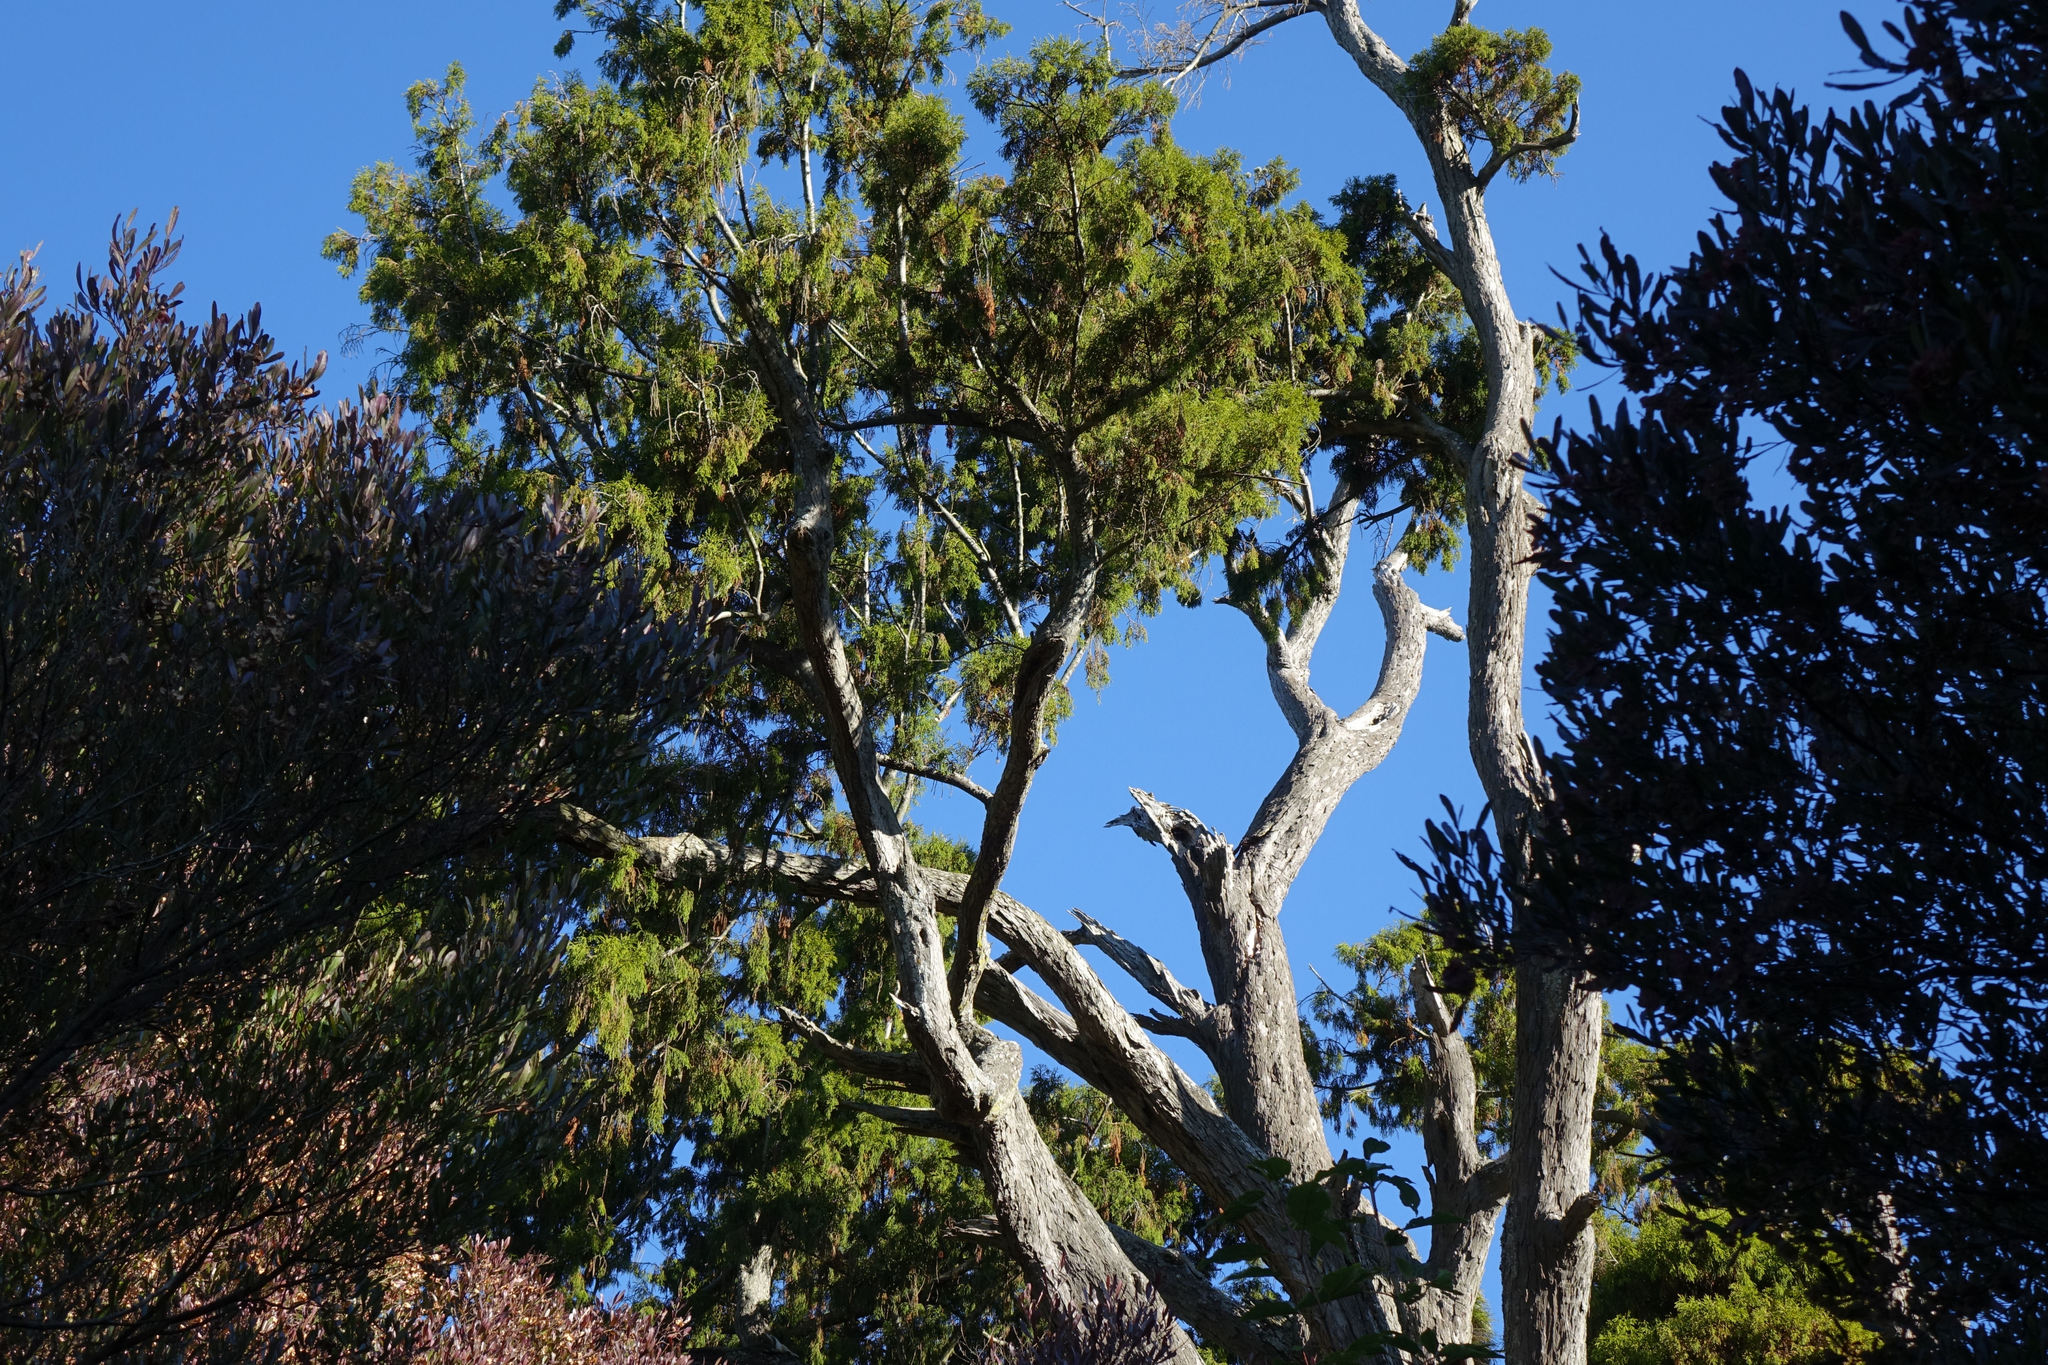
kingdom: Plantae
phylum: Tracheophyta
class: Pinopsida
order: Pinales
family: Podocarpaceae
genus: Dacrydium
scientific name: Dacrydium cupressinum
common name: Red pine
